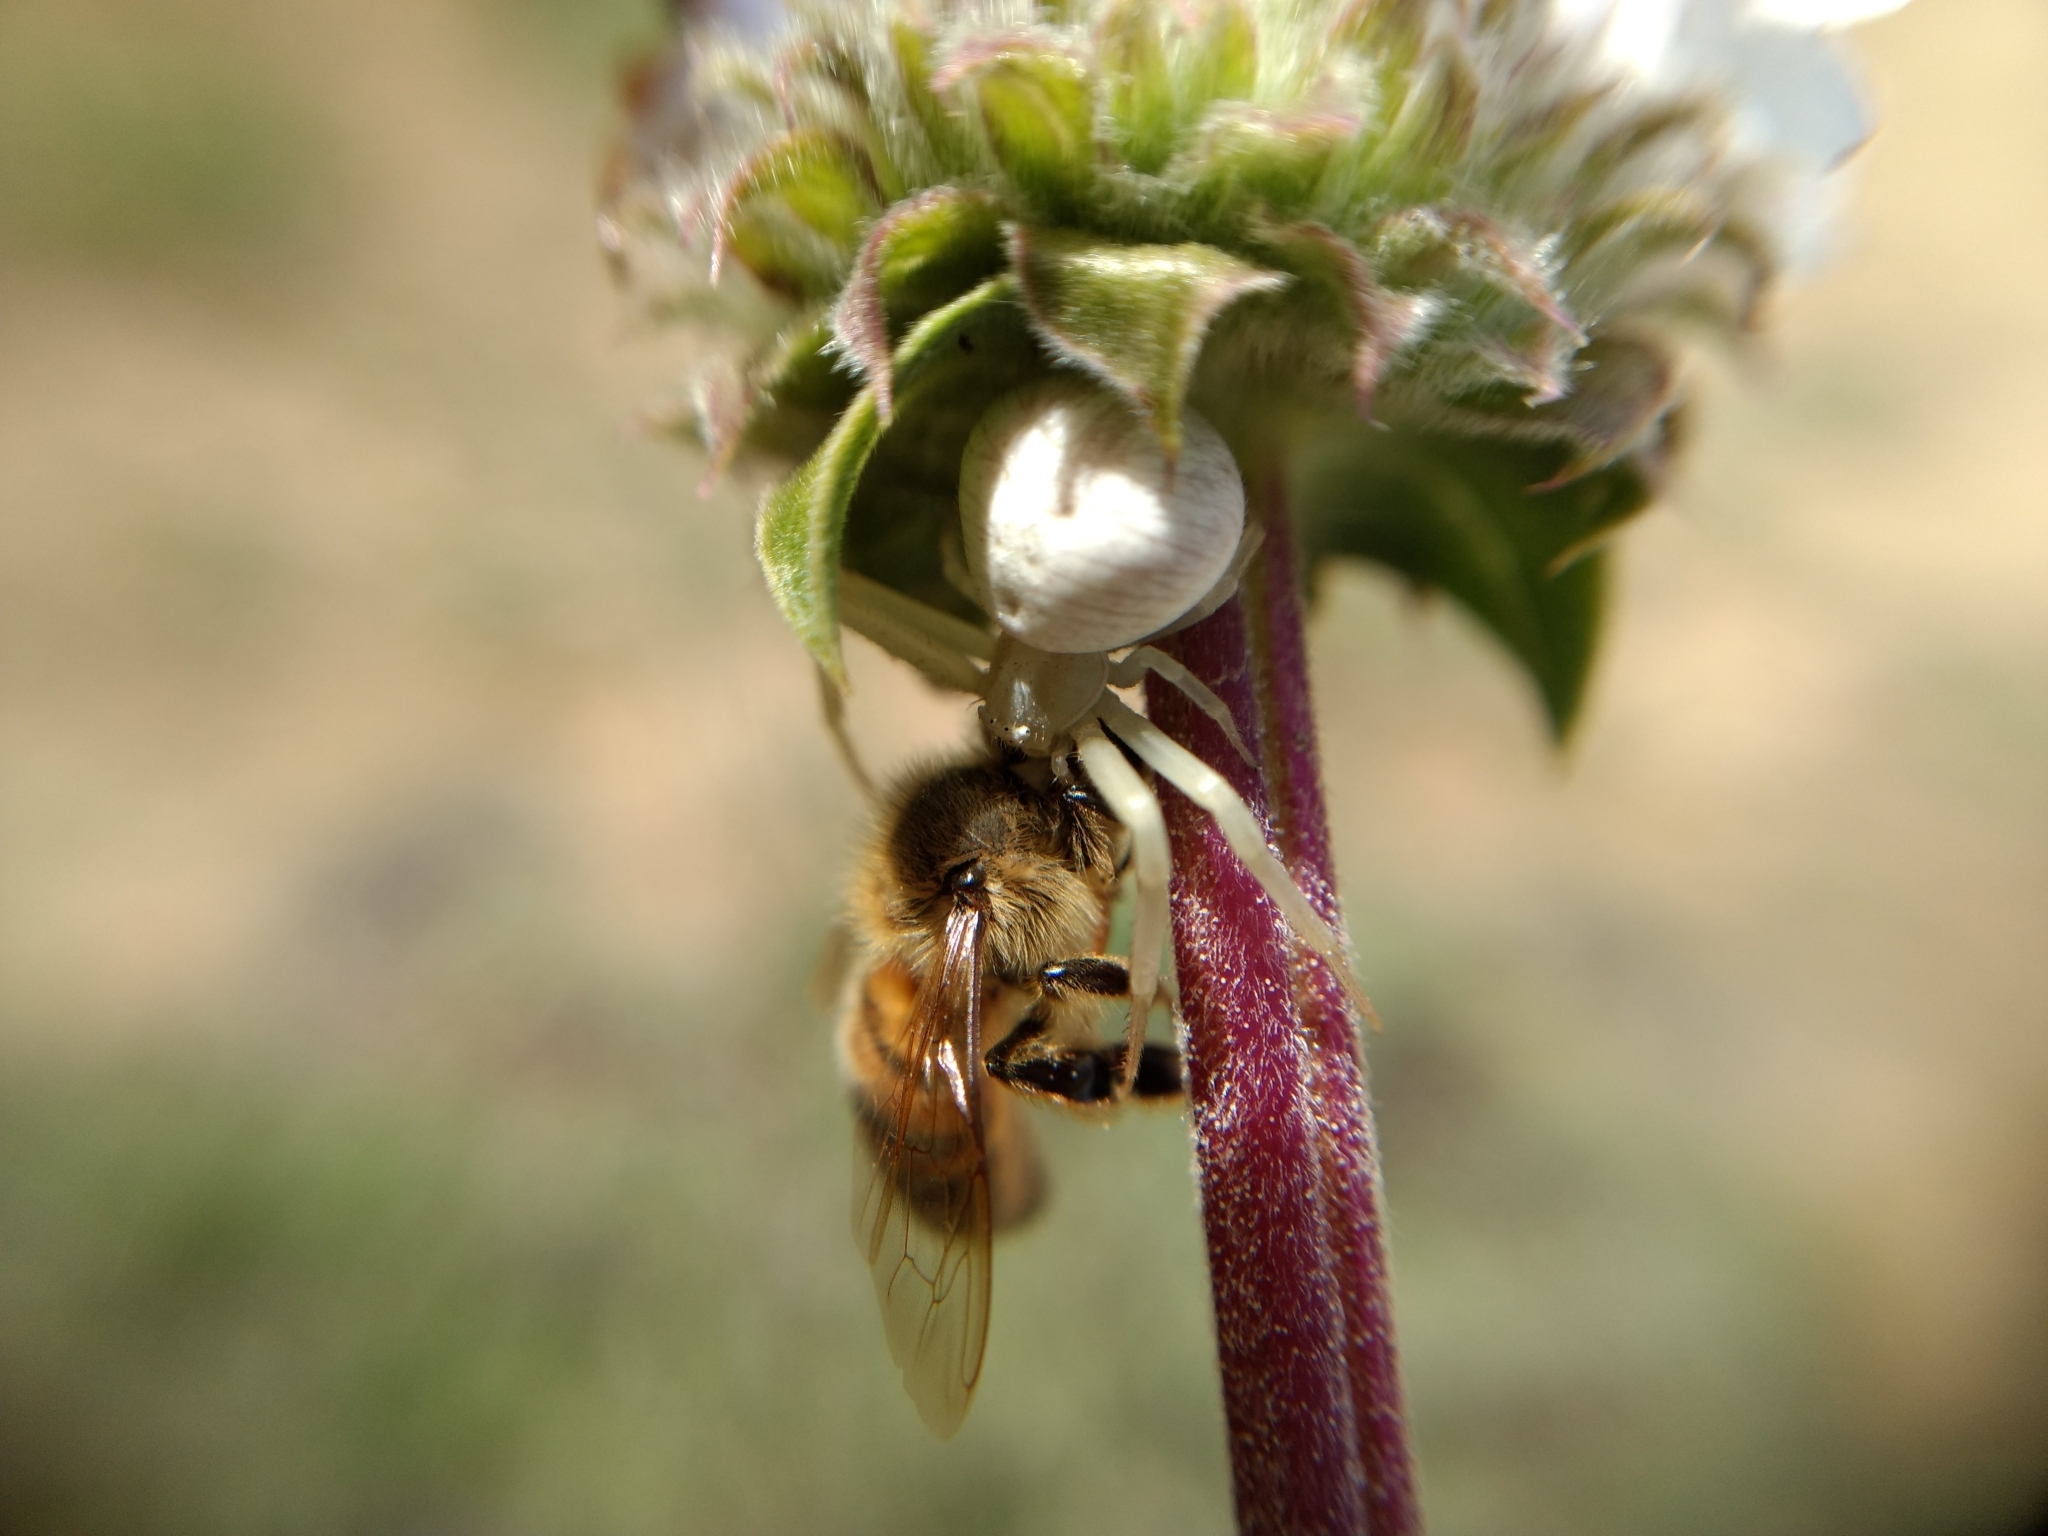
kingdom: Animalia
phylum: Arthropoda
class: Insecta
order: Hymenoptera
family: Apidae
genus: Apis
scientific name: Apis mellifera
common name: Honey bee
